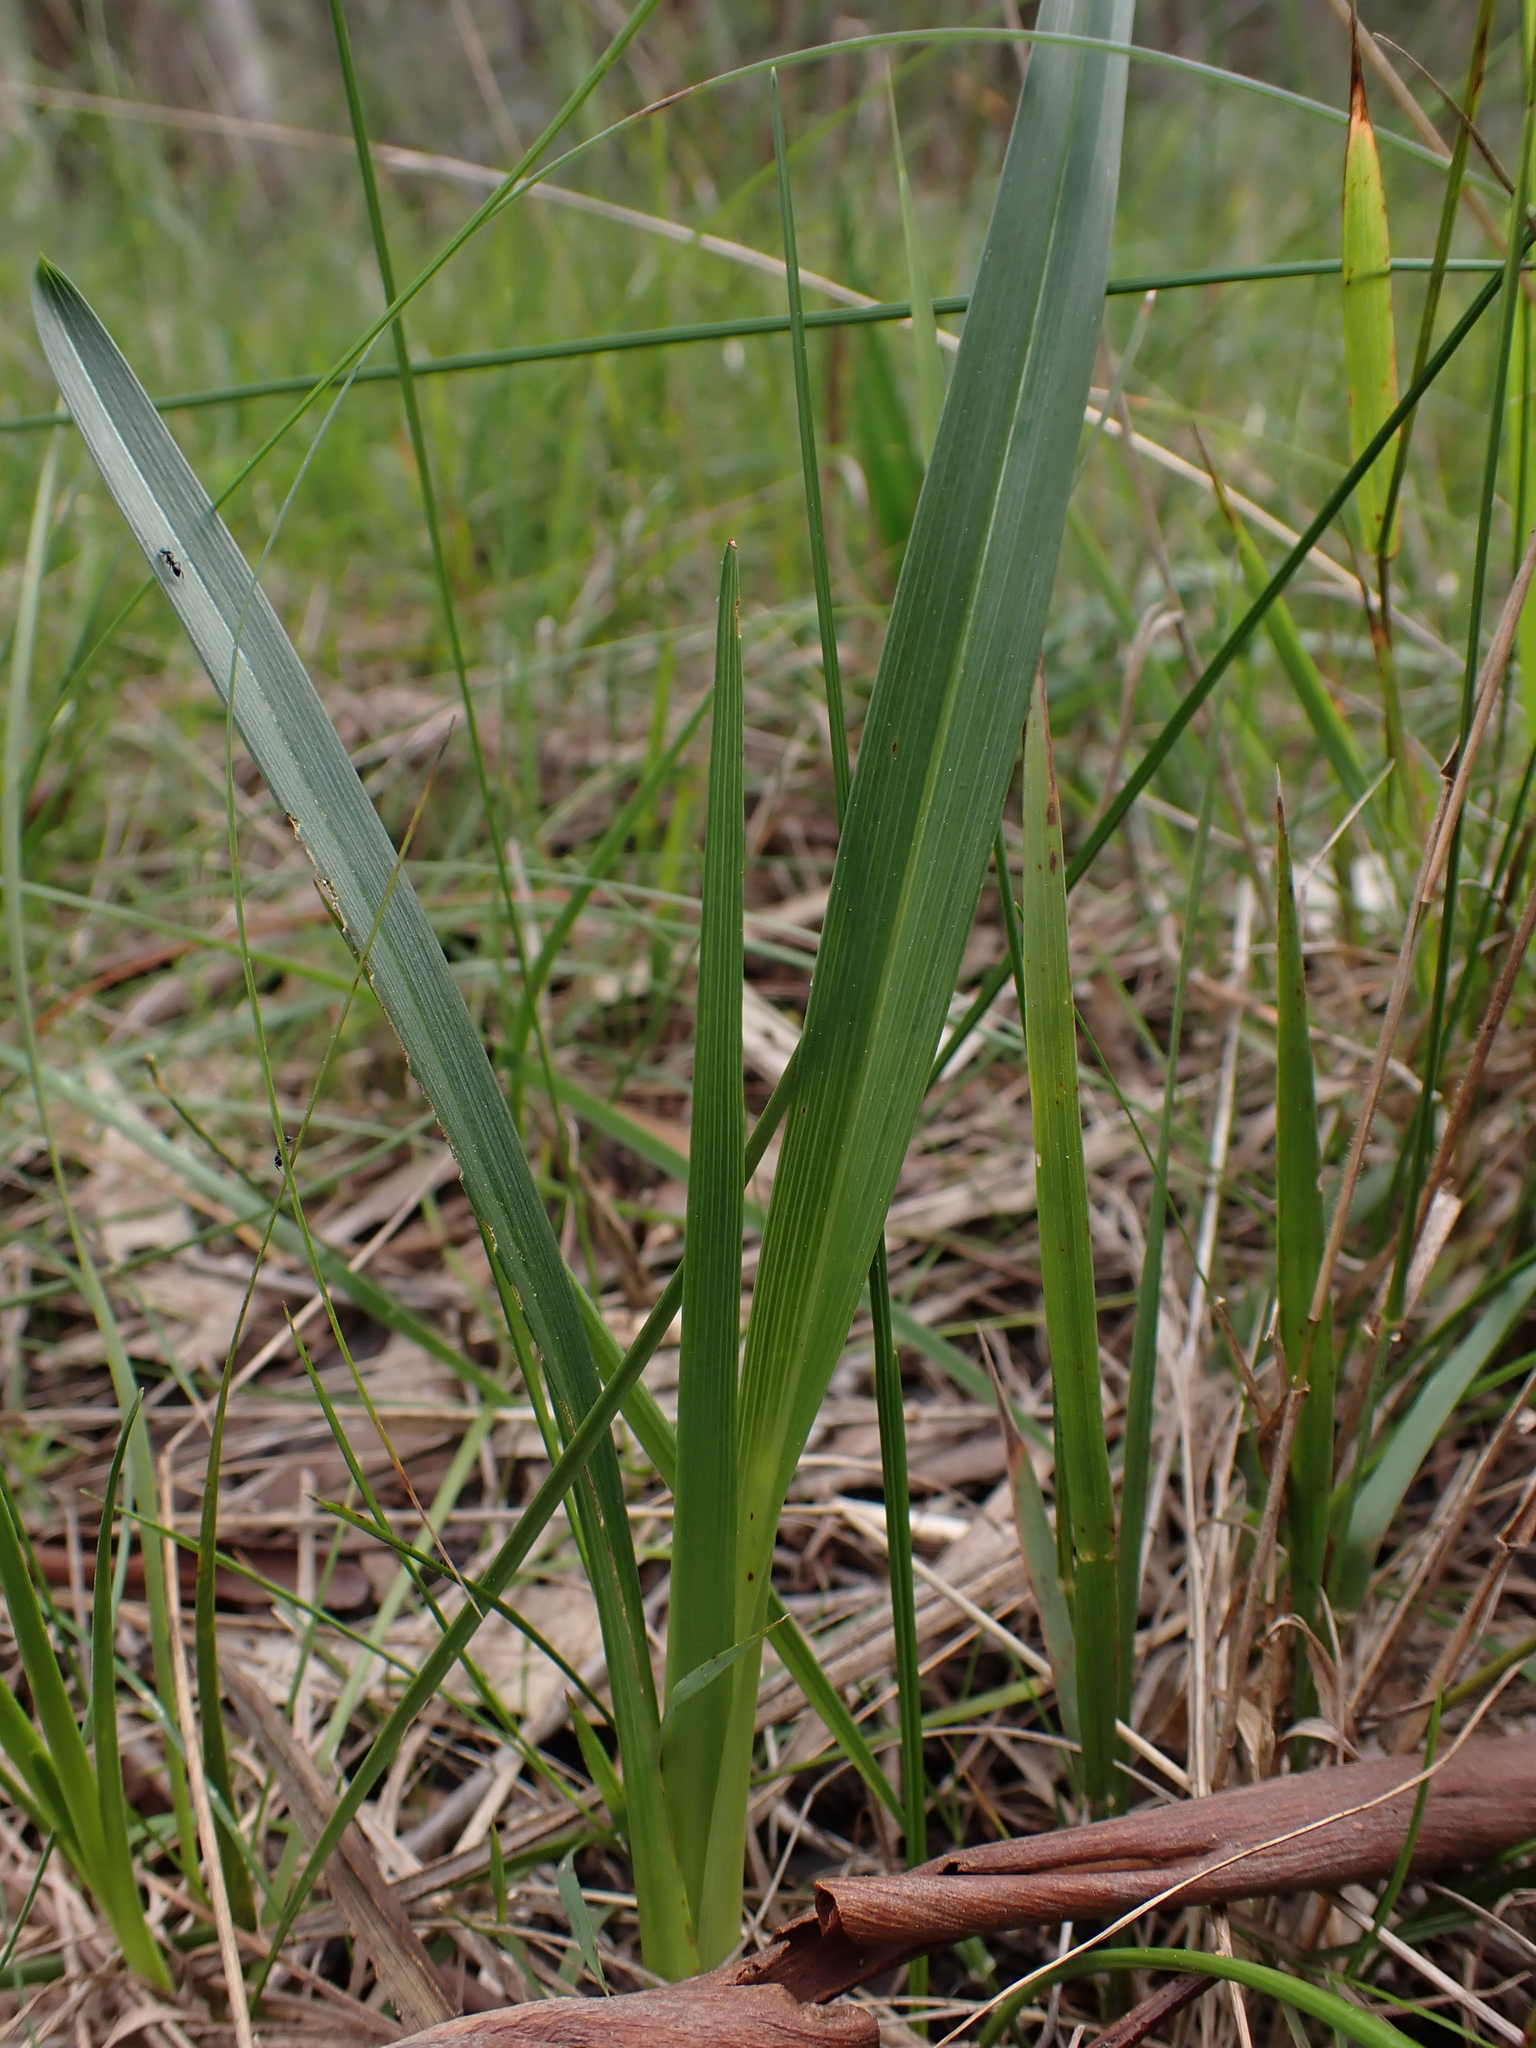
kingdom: Plantae
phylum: Tracheophyta
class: Liliopsida
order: Asparagales
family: Asphodelaceae
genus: Dianella
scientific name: Dianella amoena
